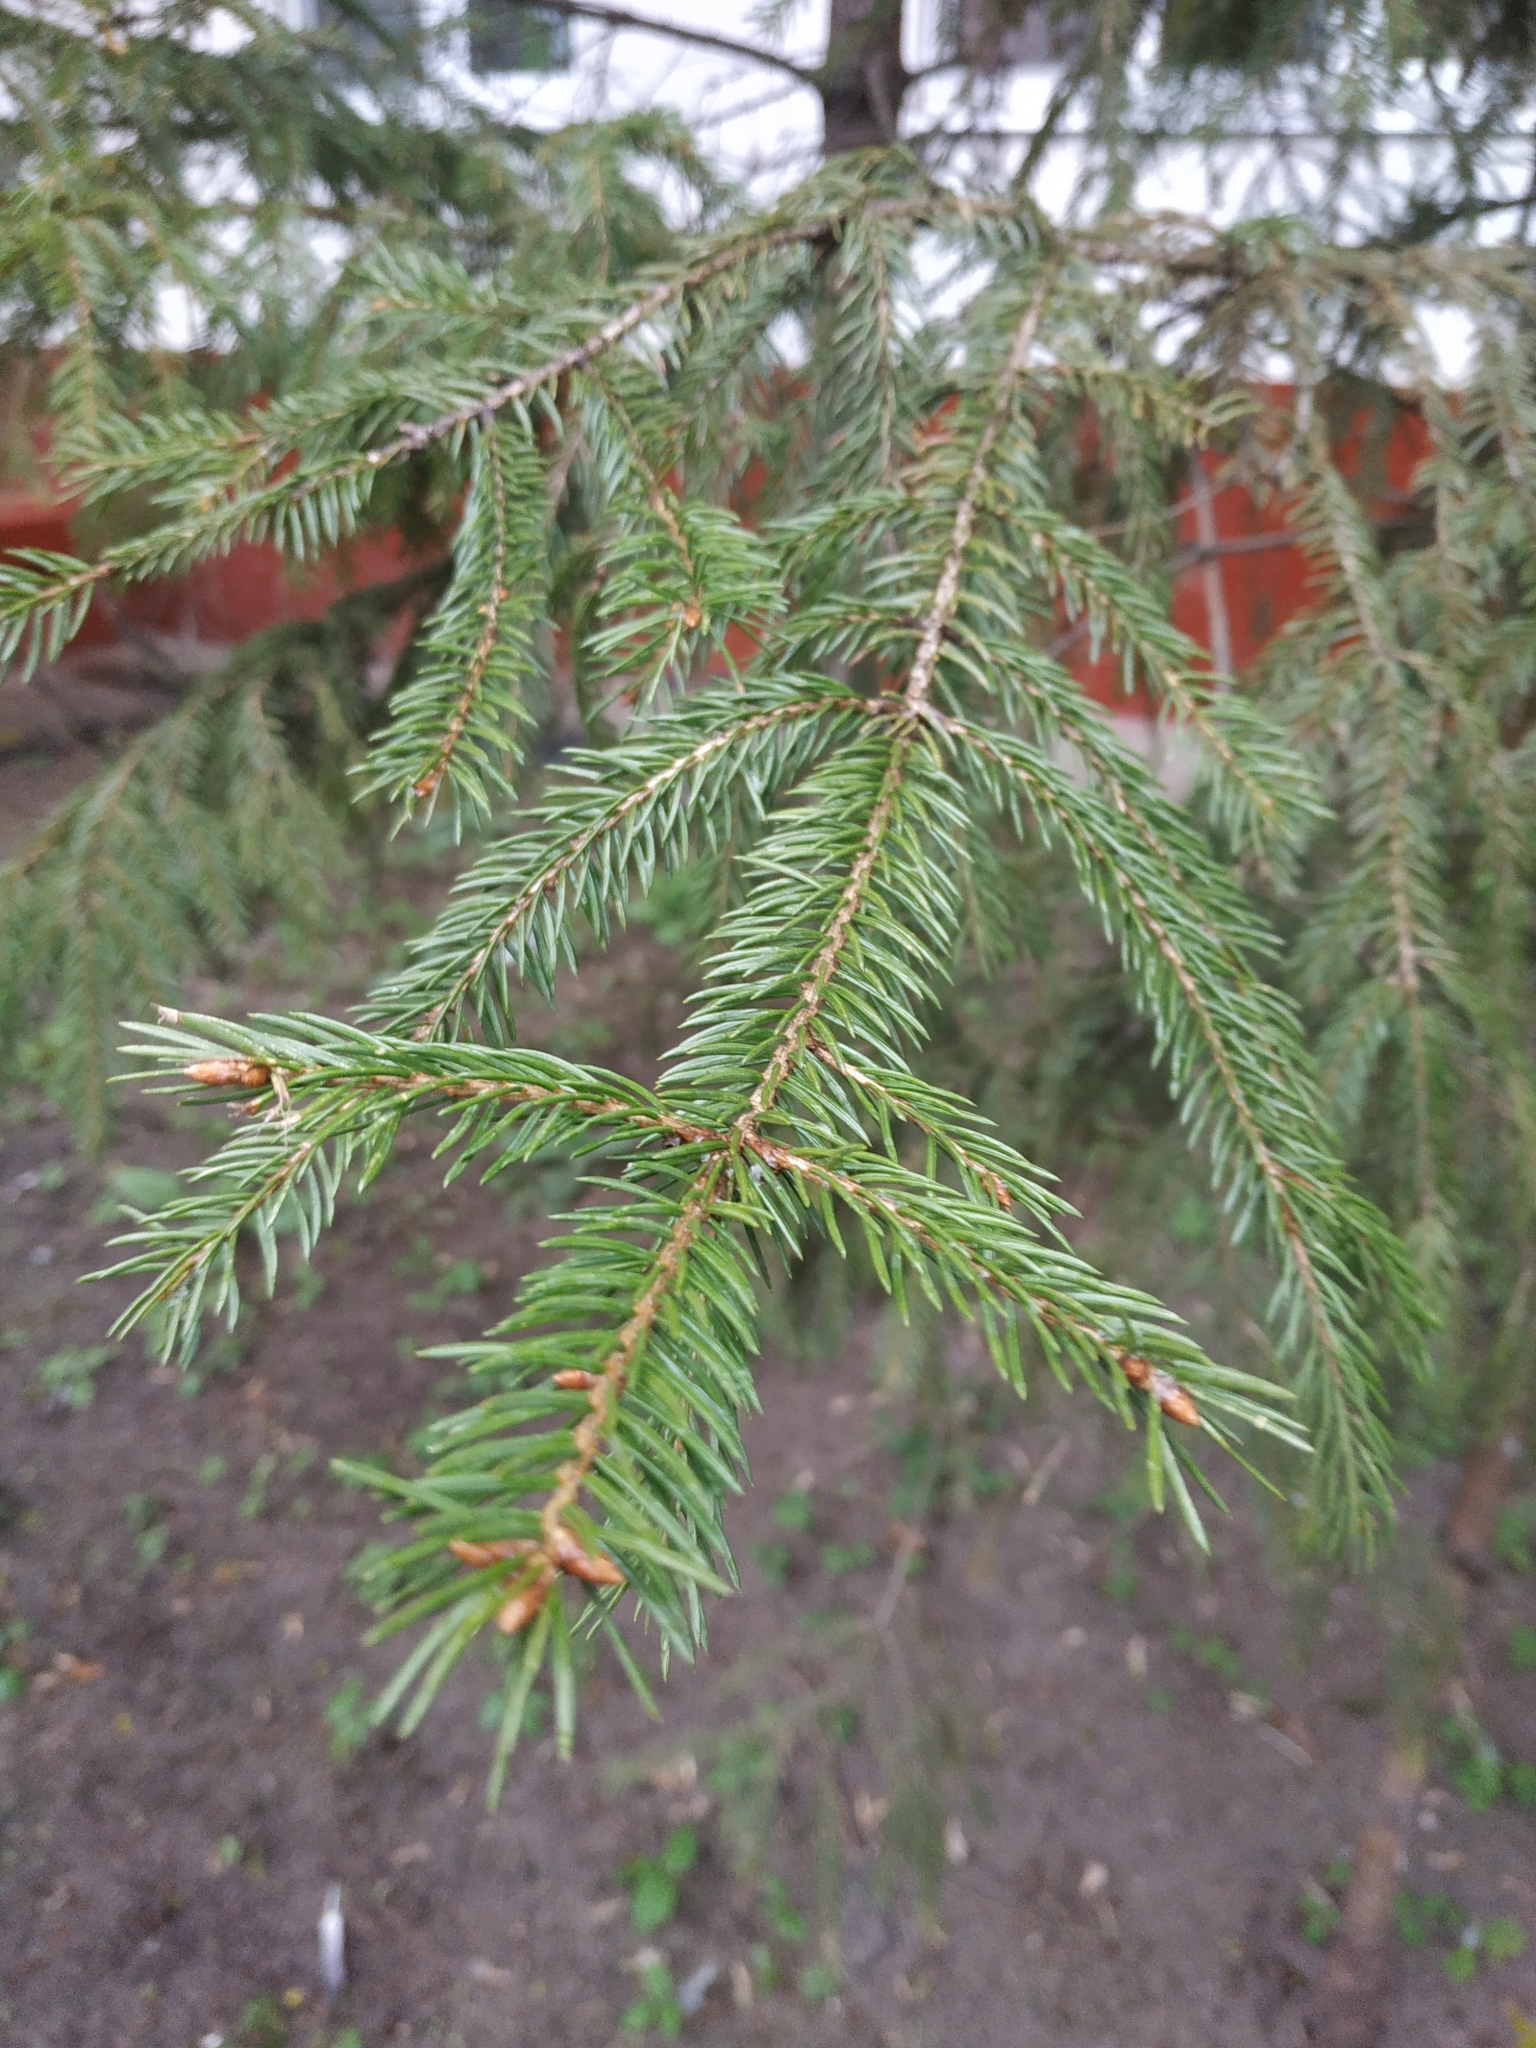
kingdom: Plantae
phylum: Tracheophyta
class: Pinopsida
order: Pinales
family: Pinaceae
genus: Picea
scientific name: Picea abies
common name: Norway spruce
